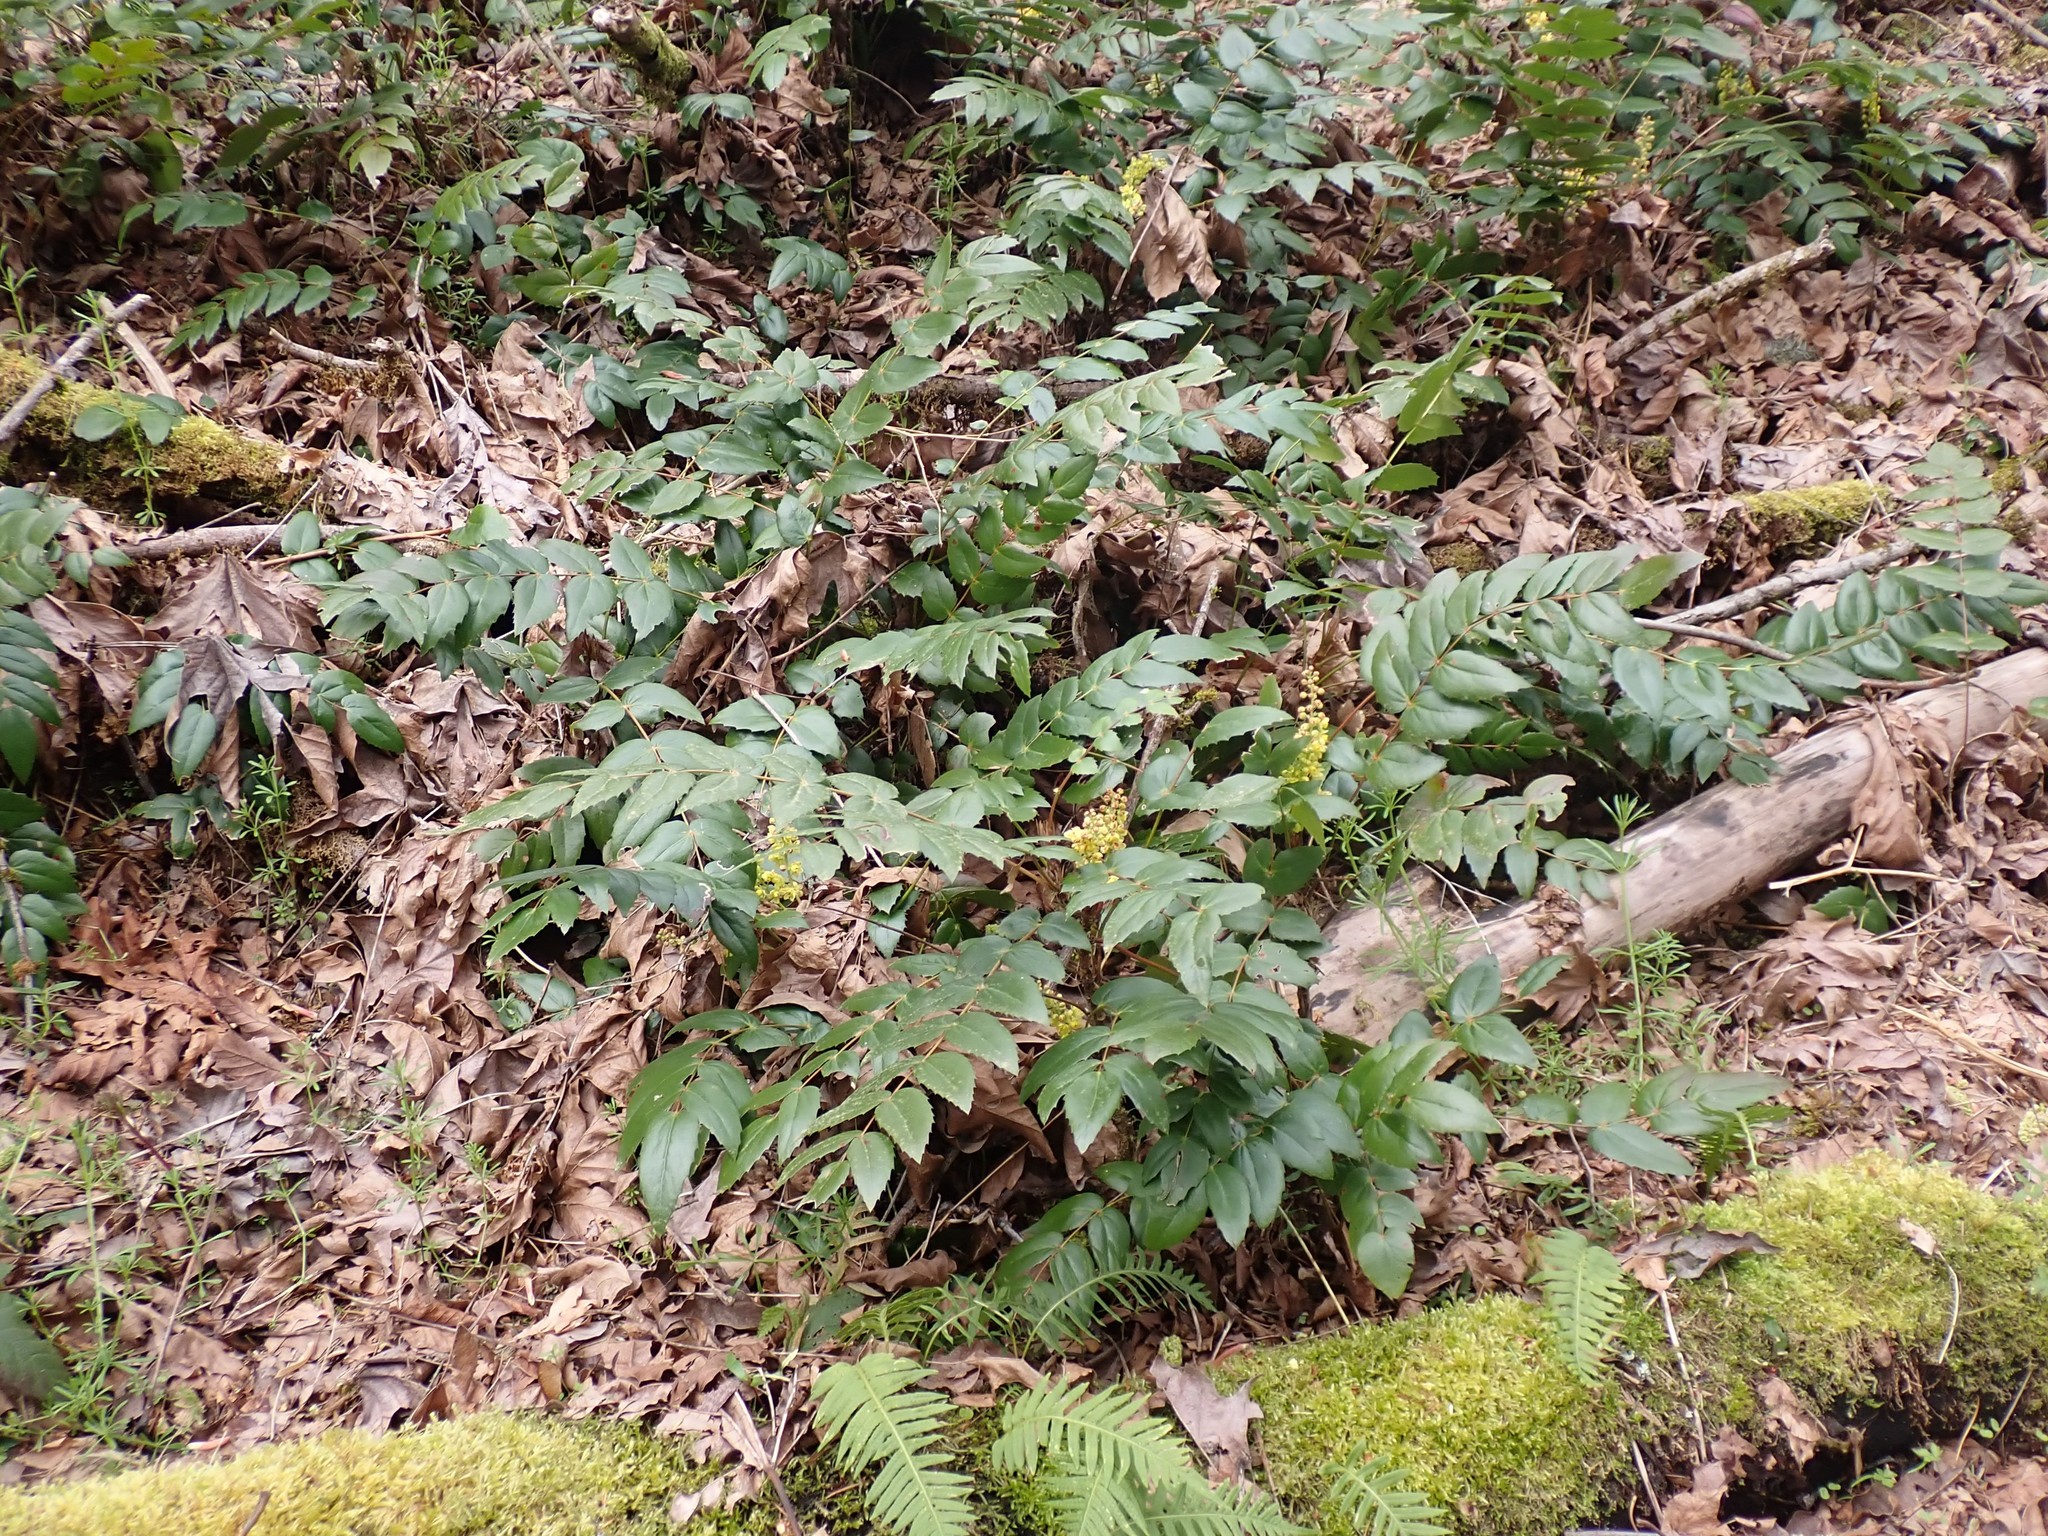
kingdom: Plantae
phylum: Tracheophyta
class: Magnoliopsida
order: Ranunculales
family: Berberidaceae
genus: Mahonia
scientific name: Mahonia nervosa
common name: Cascade oregon-grape
